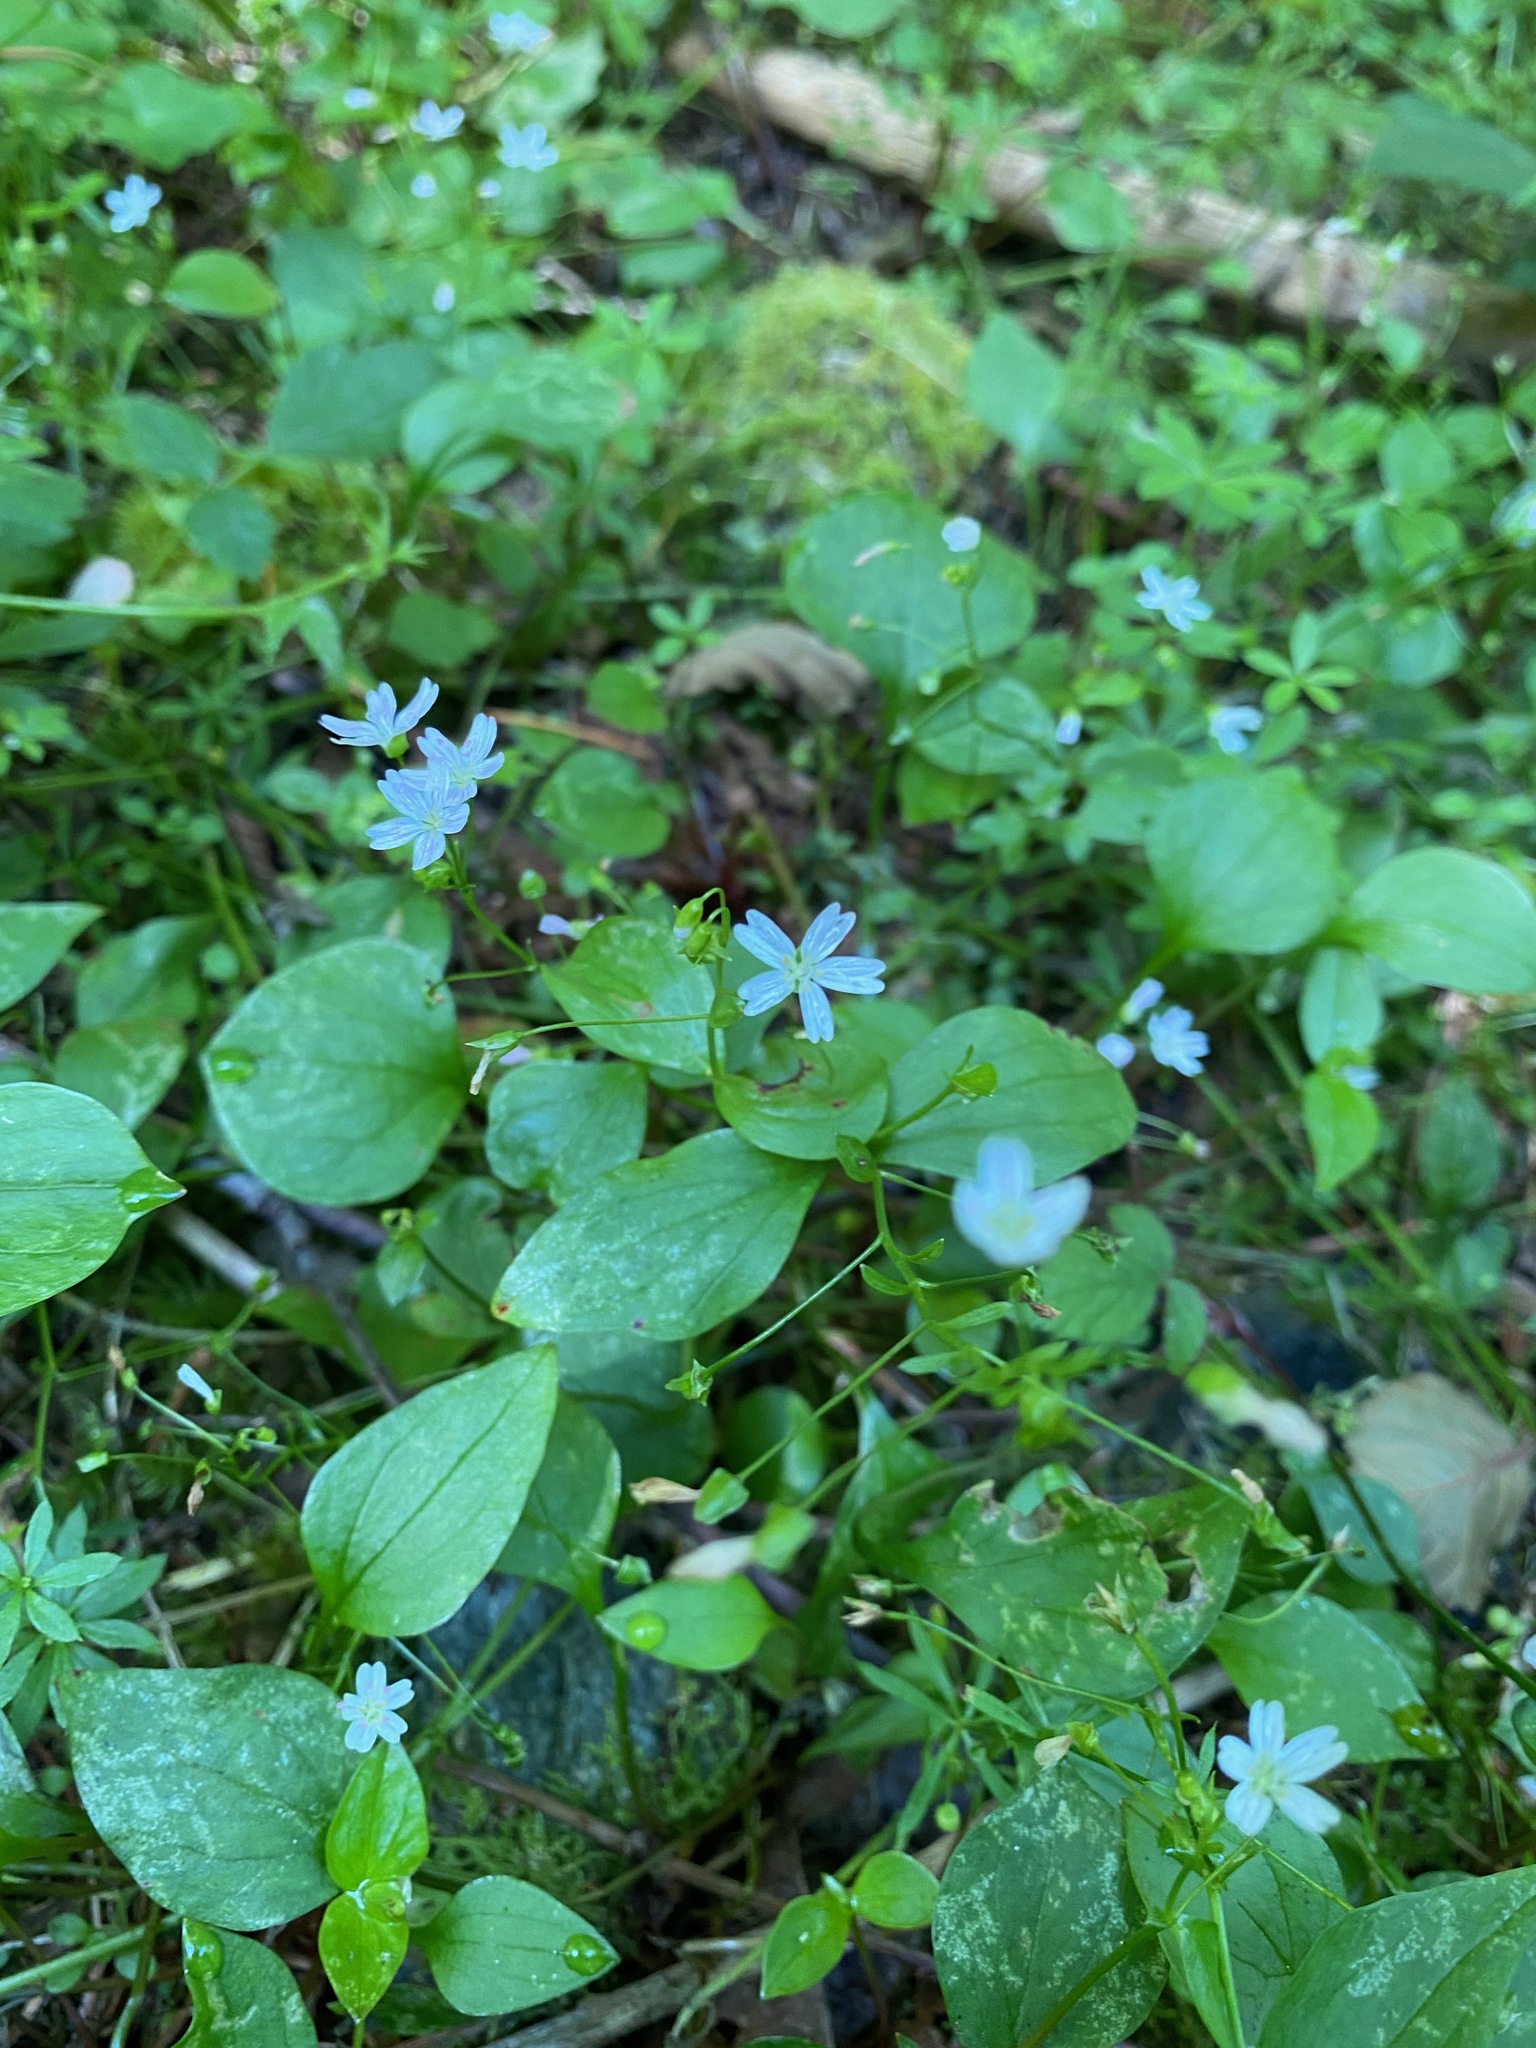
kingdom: Plantae
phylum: Tracheophyta
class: Magnoliopsida
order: Caryophyllales
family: Montiaceae
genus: Claytonia
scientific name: Claytonia sibirica
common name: Pink purslane
